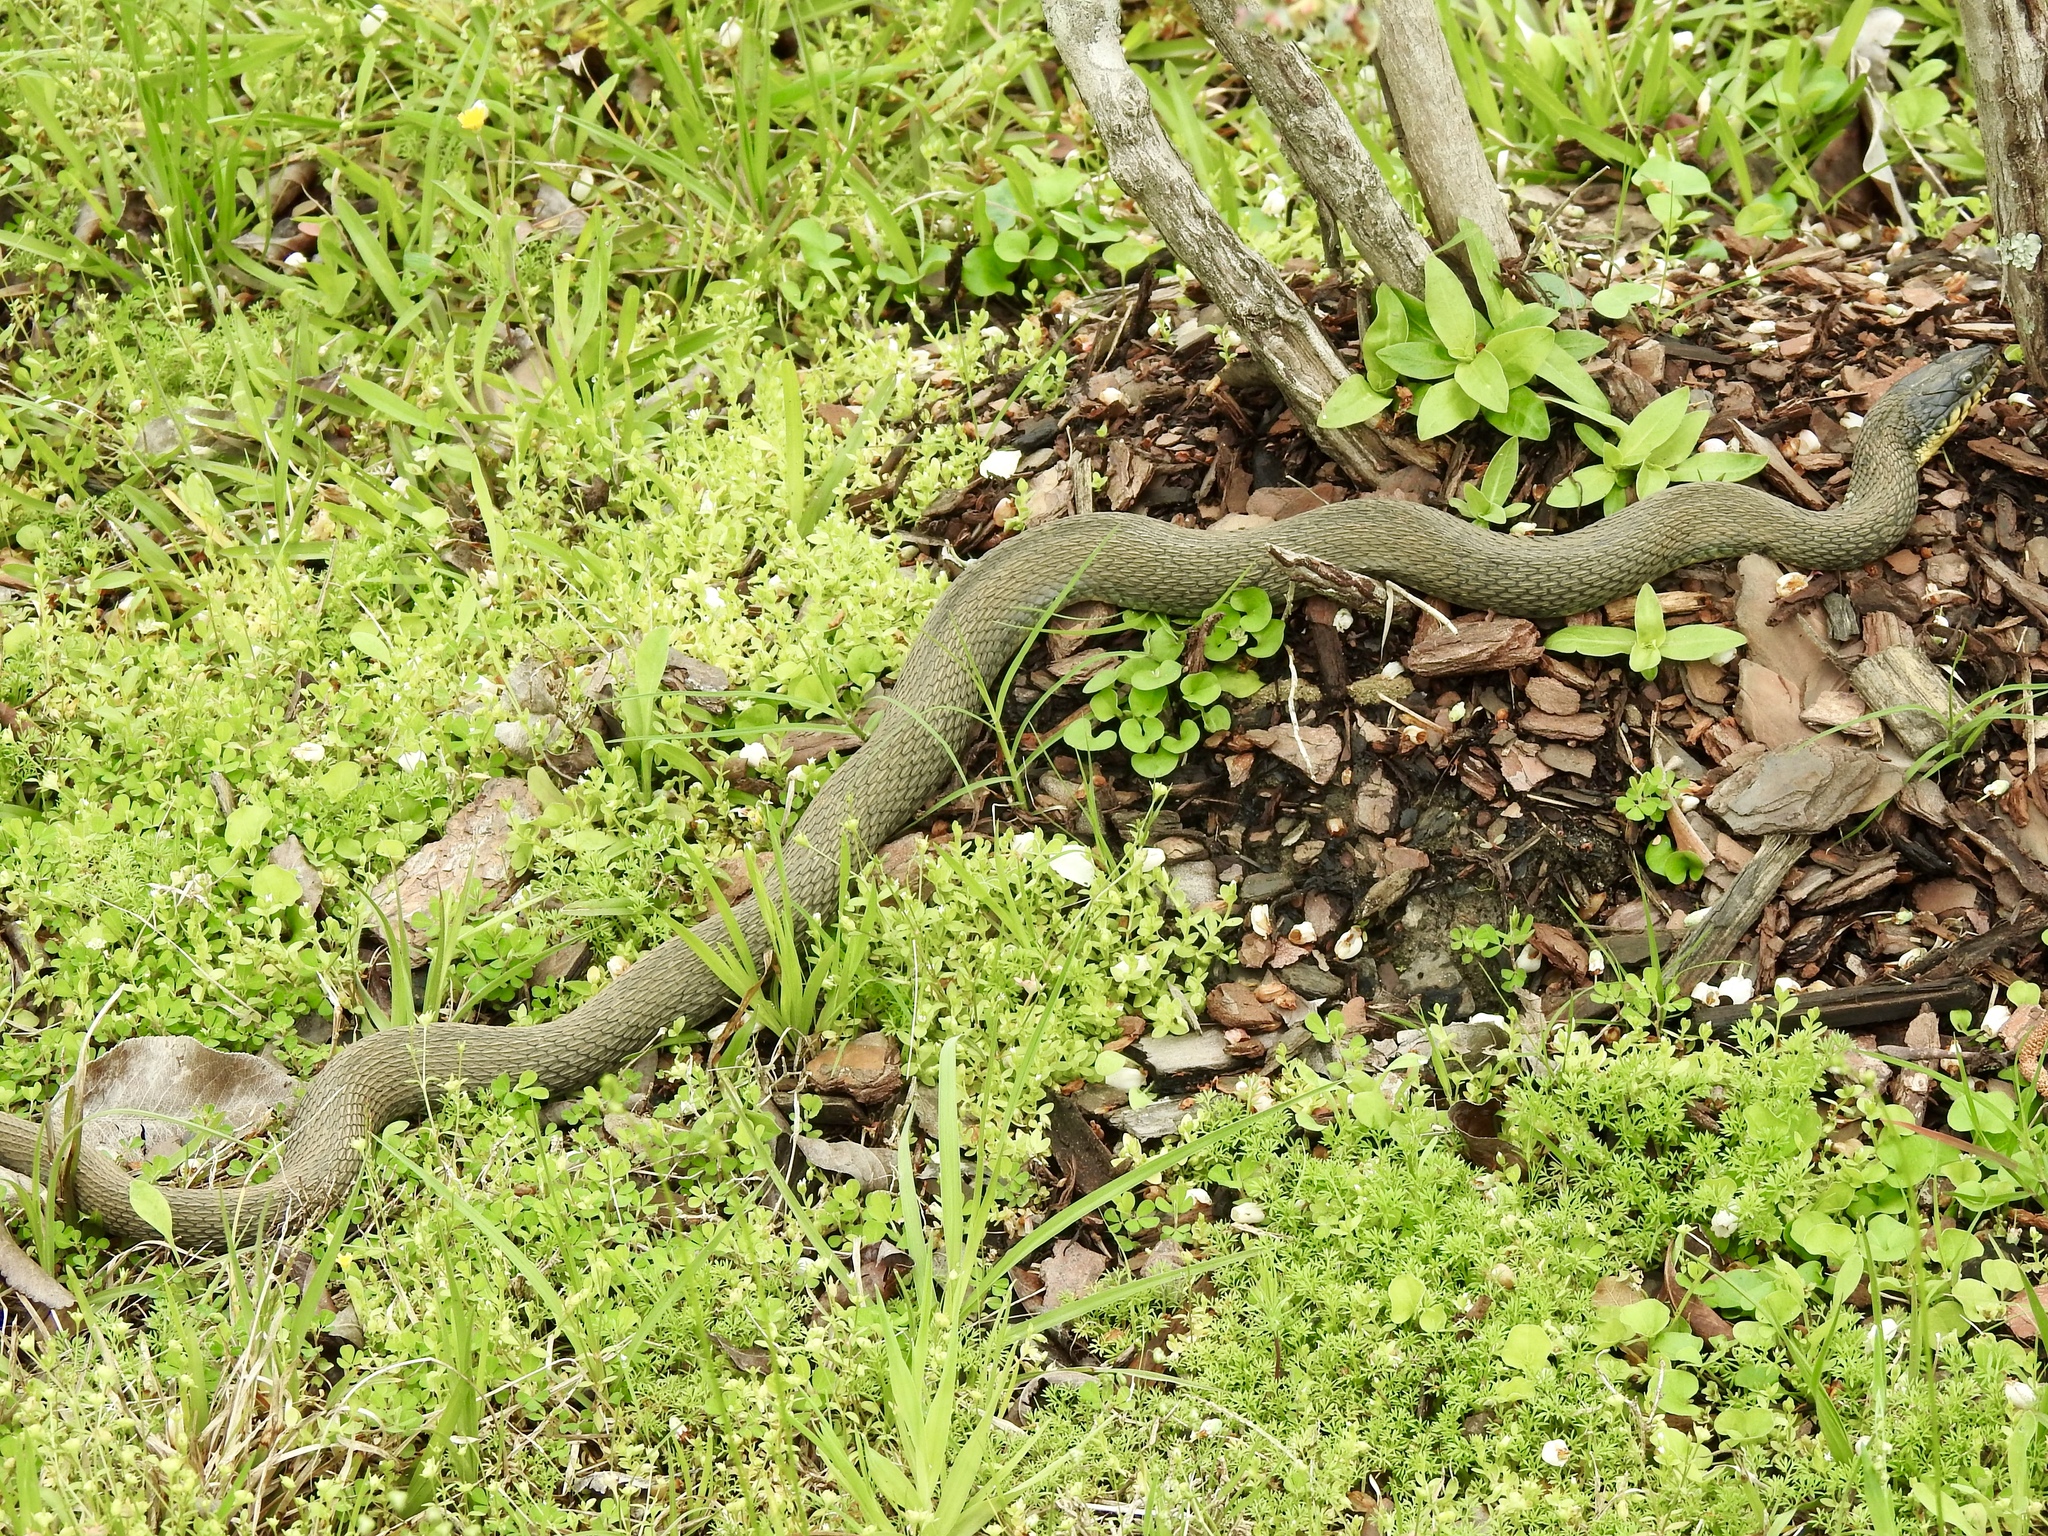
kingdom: Animalia
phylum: Chordata
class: Squamata
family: Colubridae
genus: Nerodia
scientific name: Nerodia erythrogaster
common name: Plainbelly water snake
